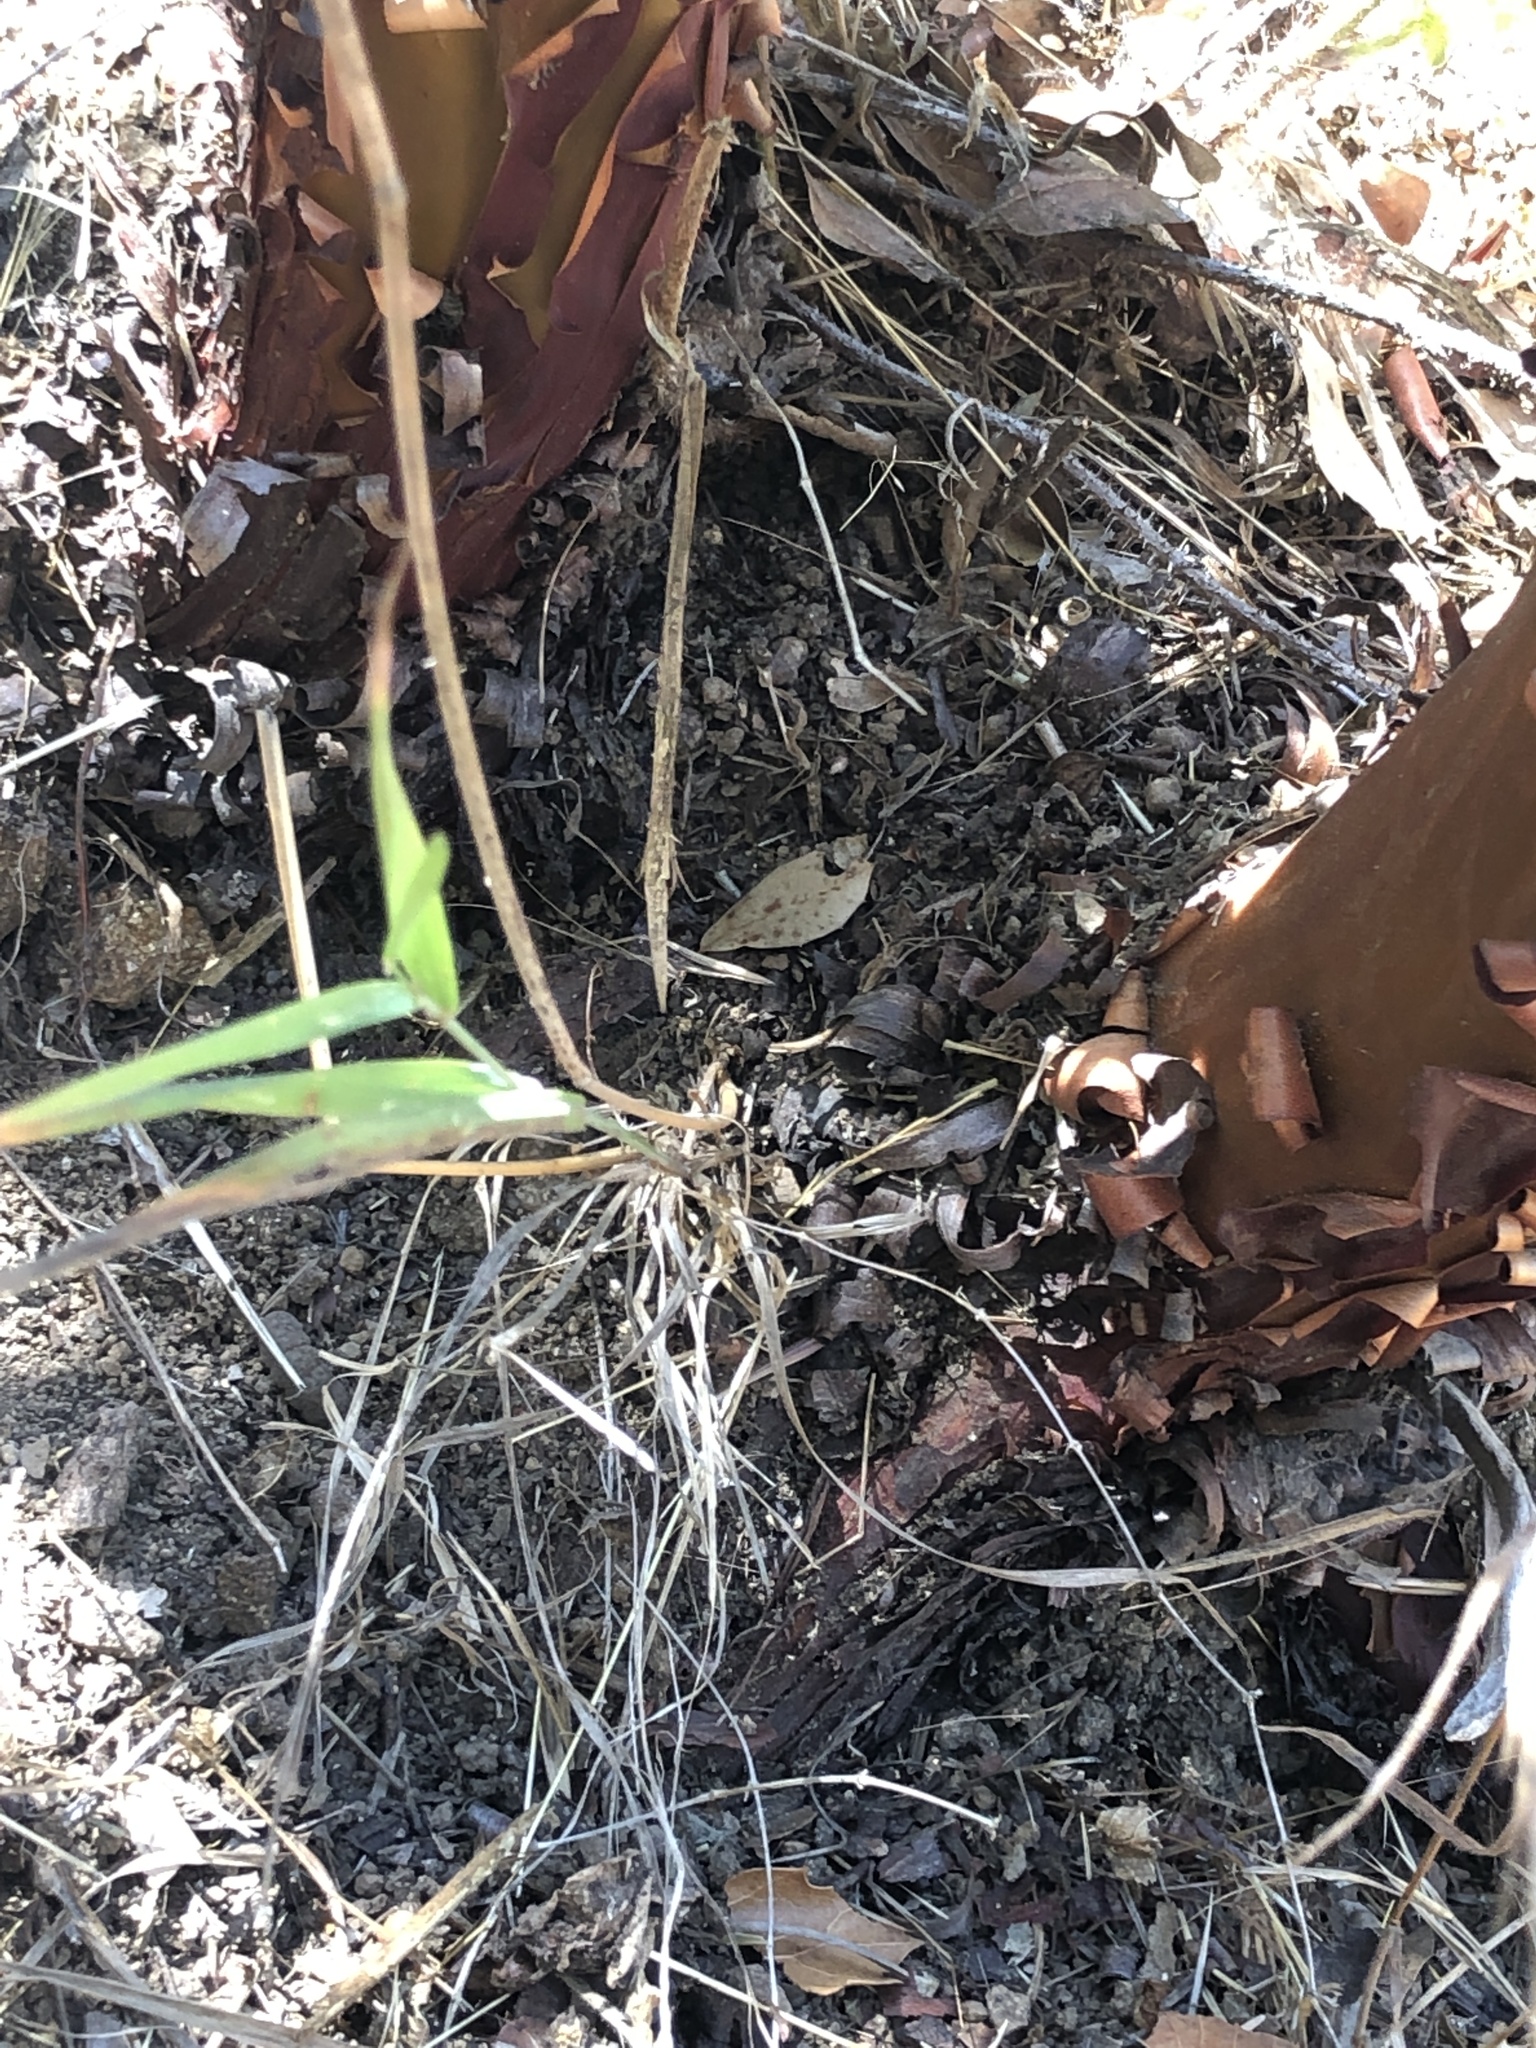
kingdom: Plantae
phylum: Tracheophyta
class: Magnoliopsida
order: Ericales
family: Ericaceae
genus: Arctostaphylos
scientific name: Arctostaphylos virgata
